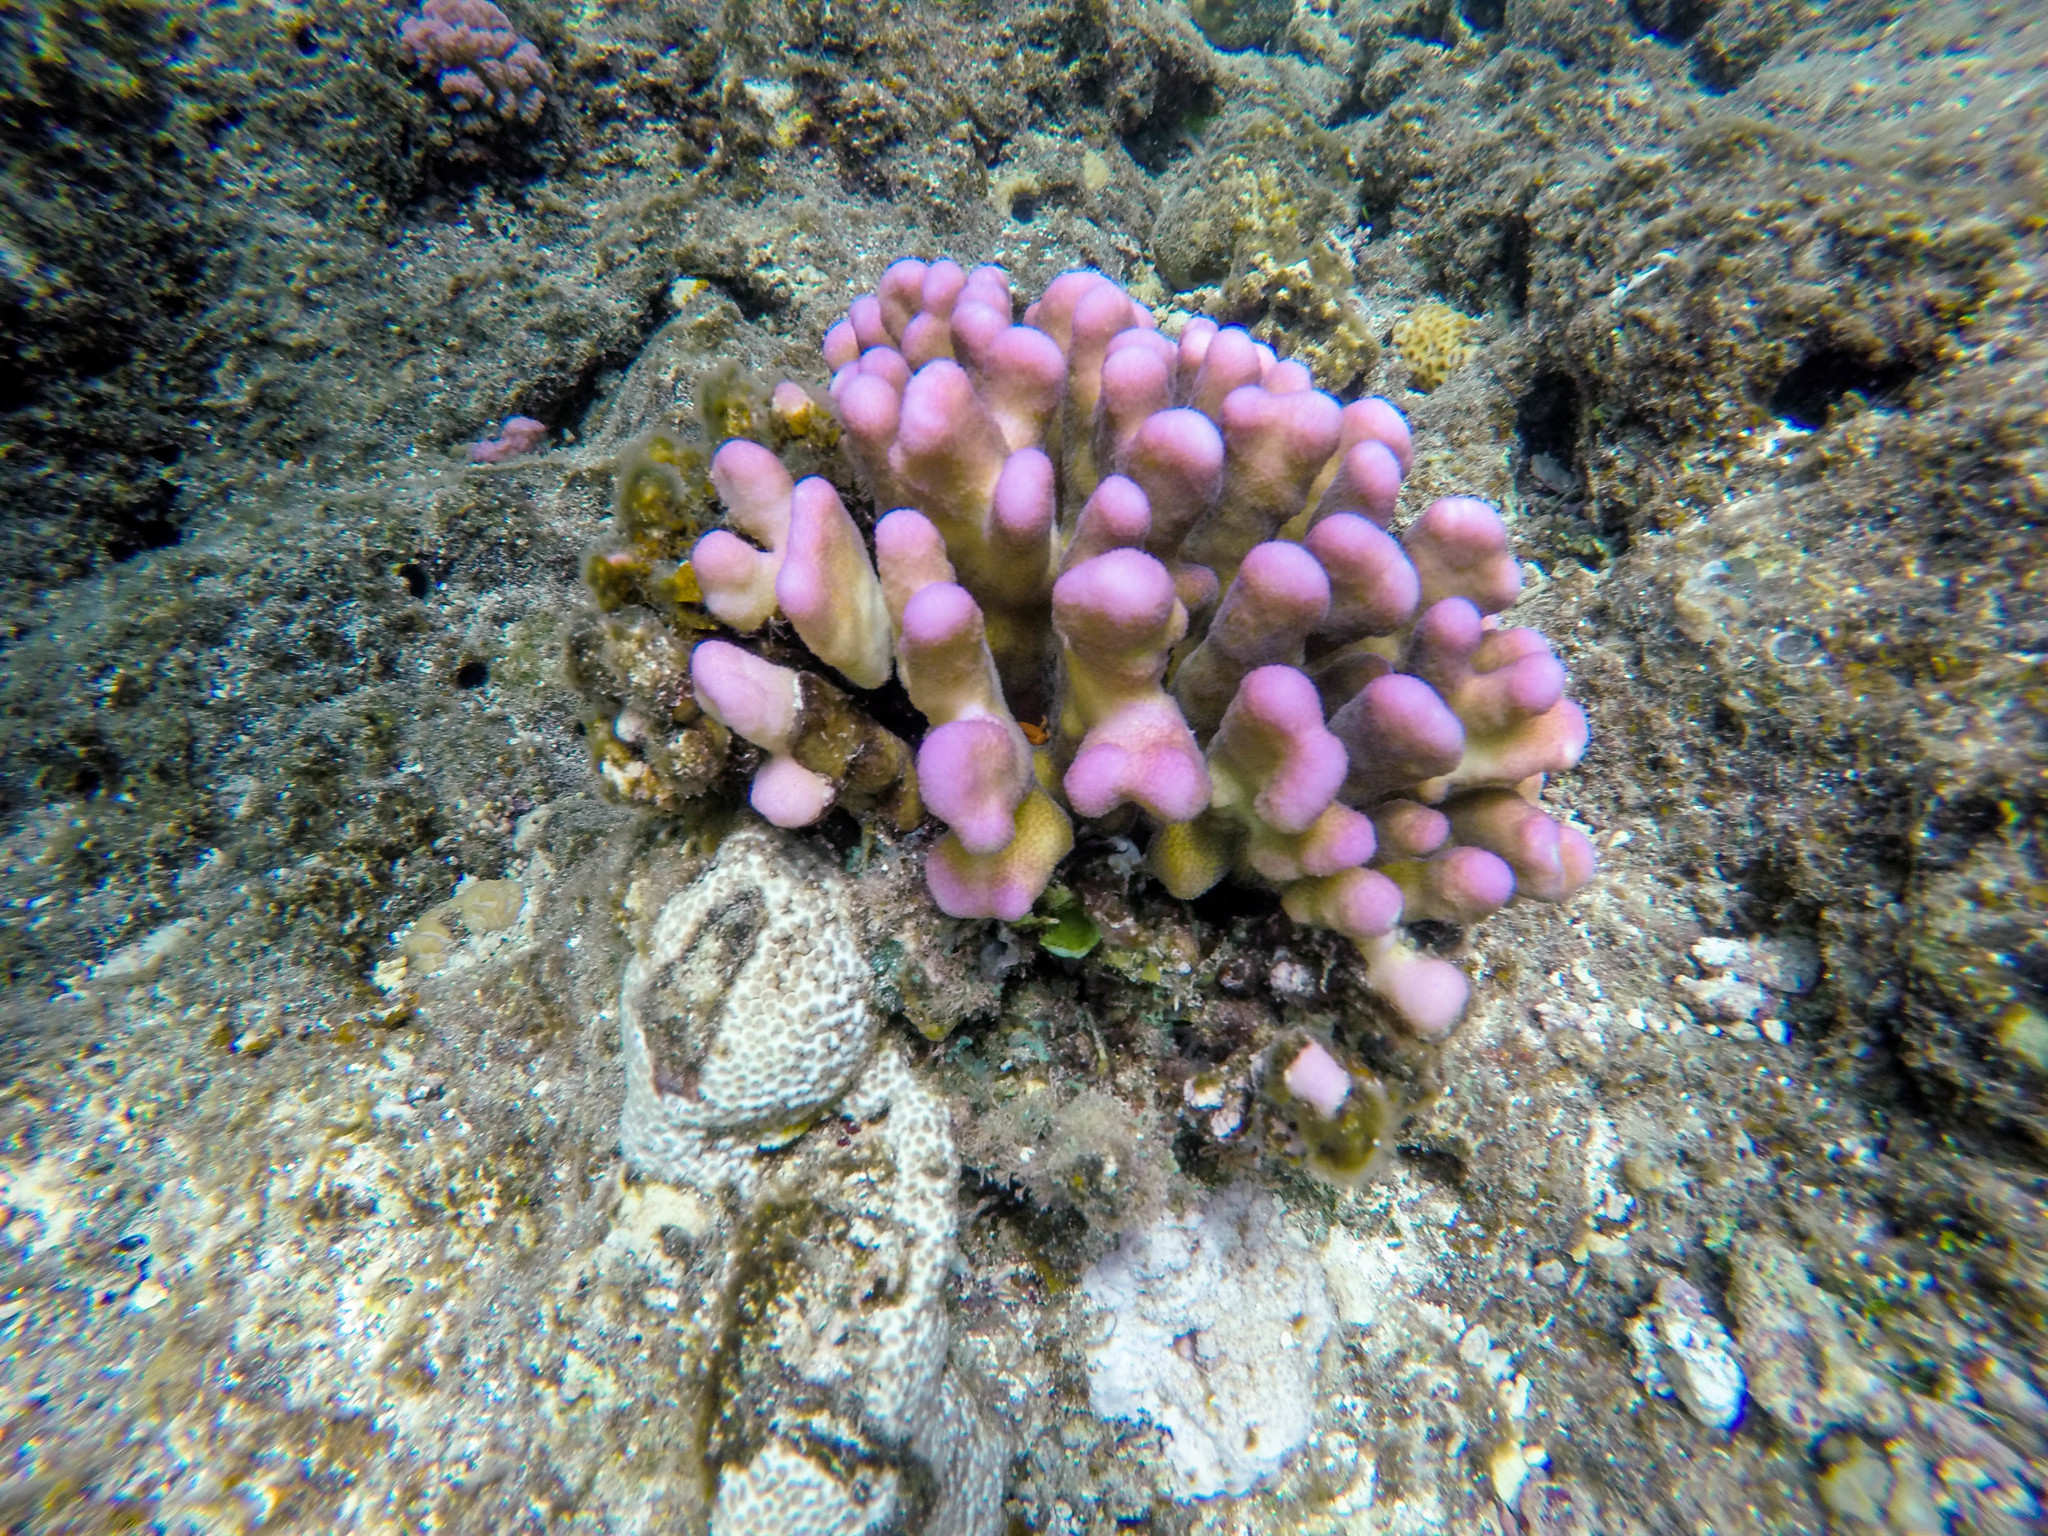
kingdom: Animalia
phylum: Cnidaria
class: Anthozoa
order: Scleractinia
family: Pocilloporidae
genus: Stylophora
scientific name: Stylophora pistillata
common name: Hood coral
